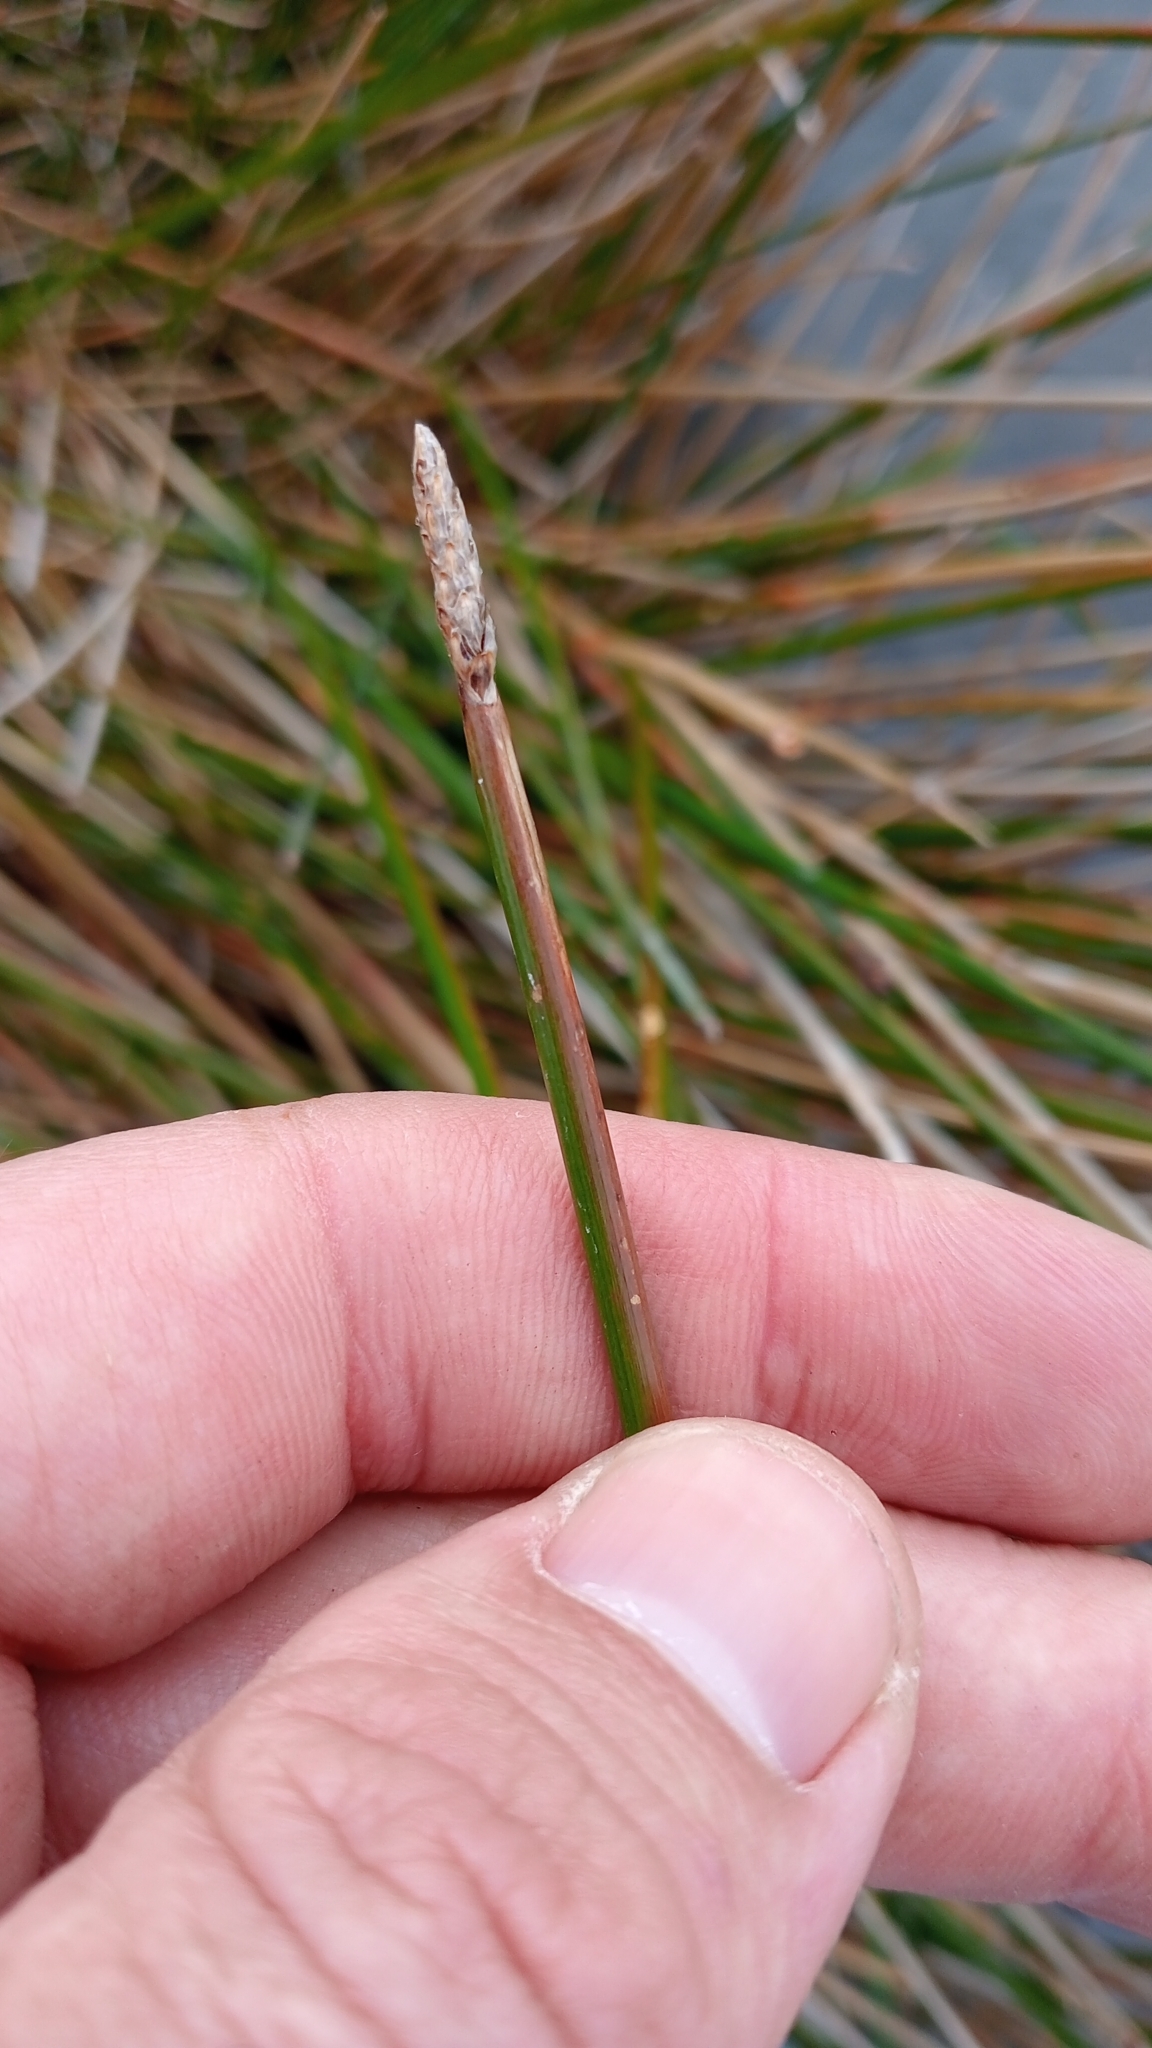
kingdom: Plantae
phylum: Tracheophyta
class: Liliopsida
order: Poales
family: Cyperaceae
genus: Eleocharis
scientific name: Eleocharis acuta
